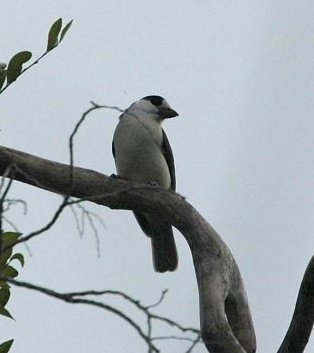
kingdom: Animalia
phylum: Chordata
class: Aves
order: Passeriformes
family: Vangidae
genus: Xenopirostris
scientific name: Xenopirostris damii
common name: Van dam's vanga
